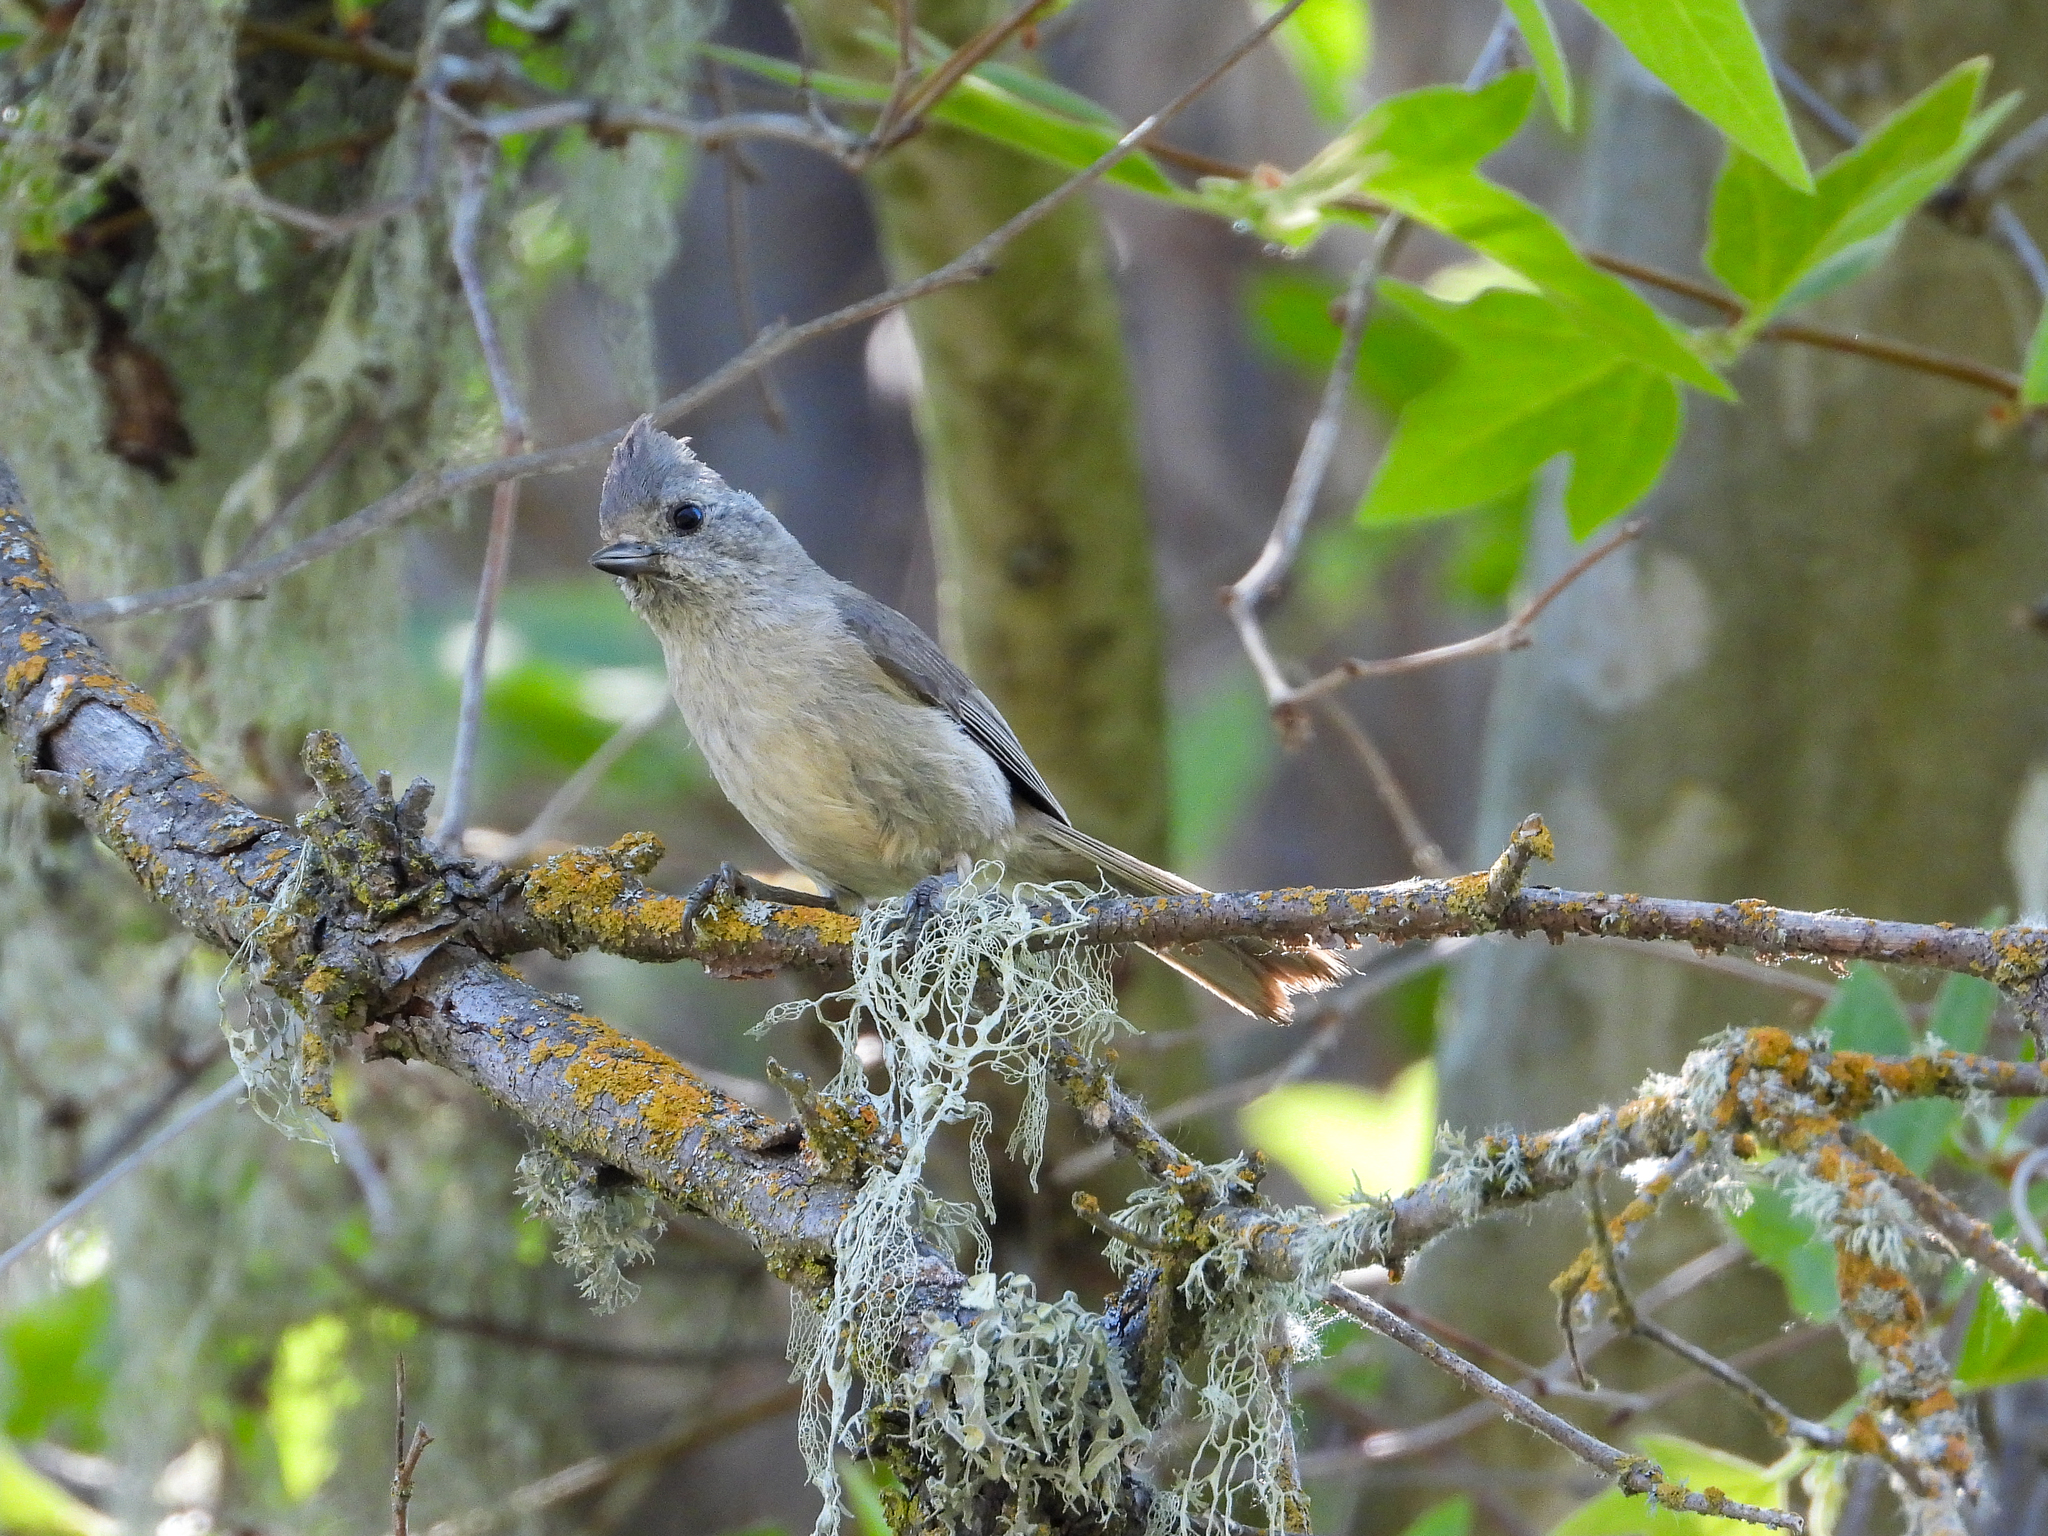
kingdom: Animalia
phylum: Chordata
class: Aves
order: Passeriformes
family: Paridae
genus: Baeolophus
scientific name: Baeolophus inornatus
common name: Oak titmouse
